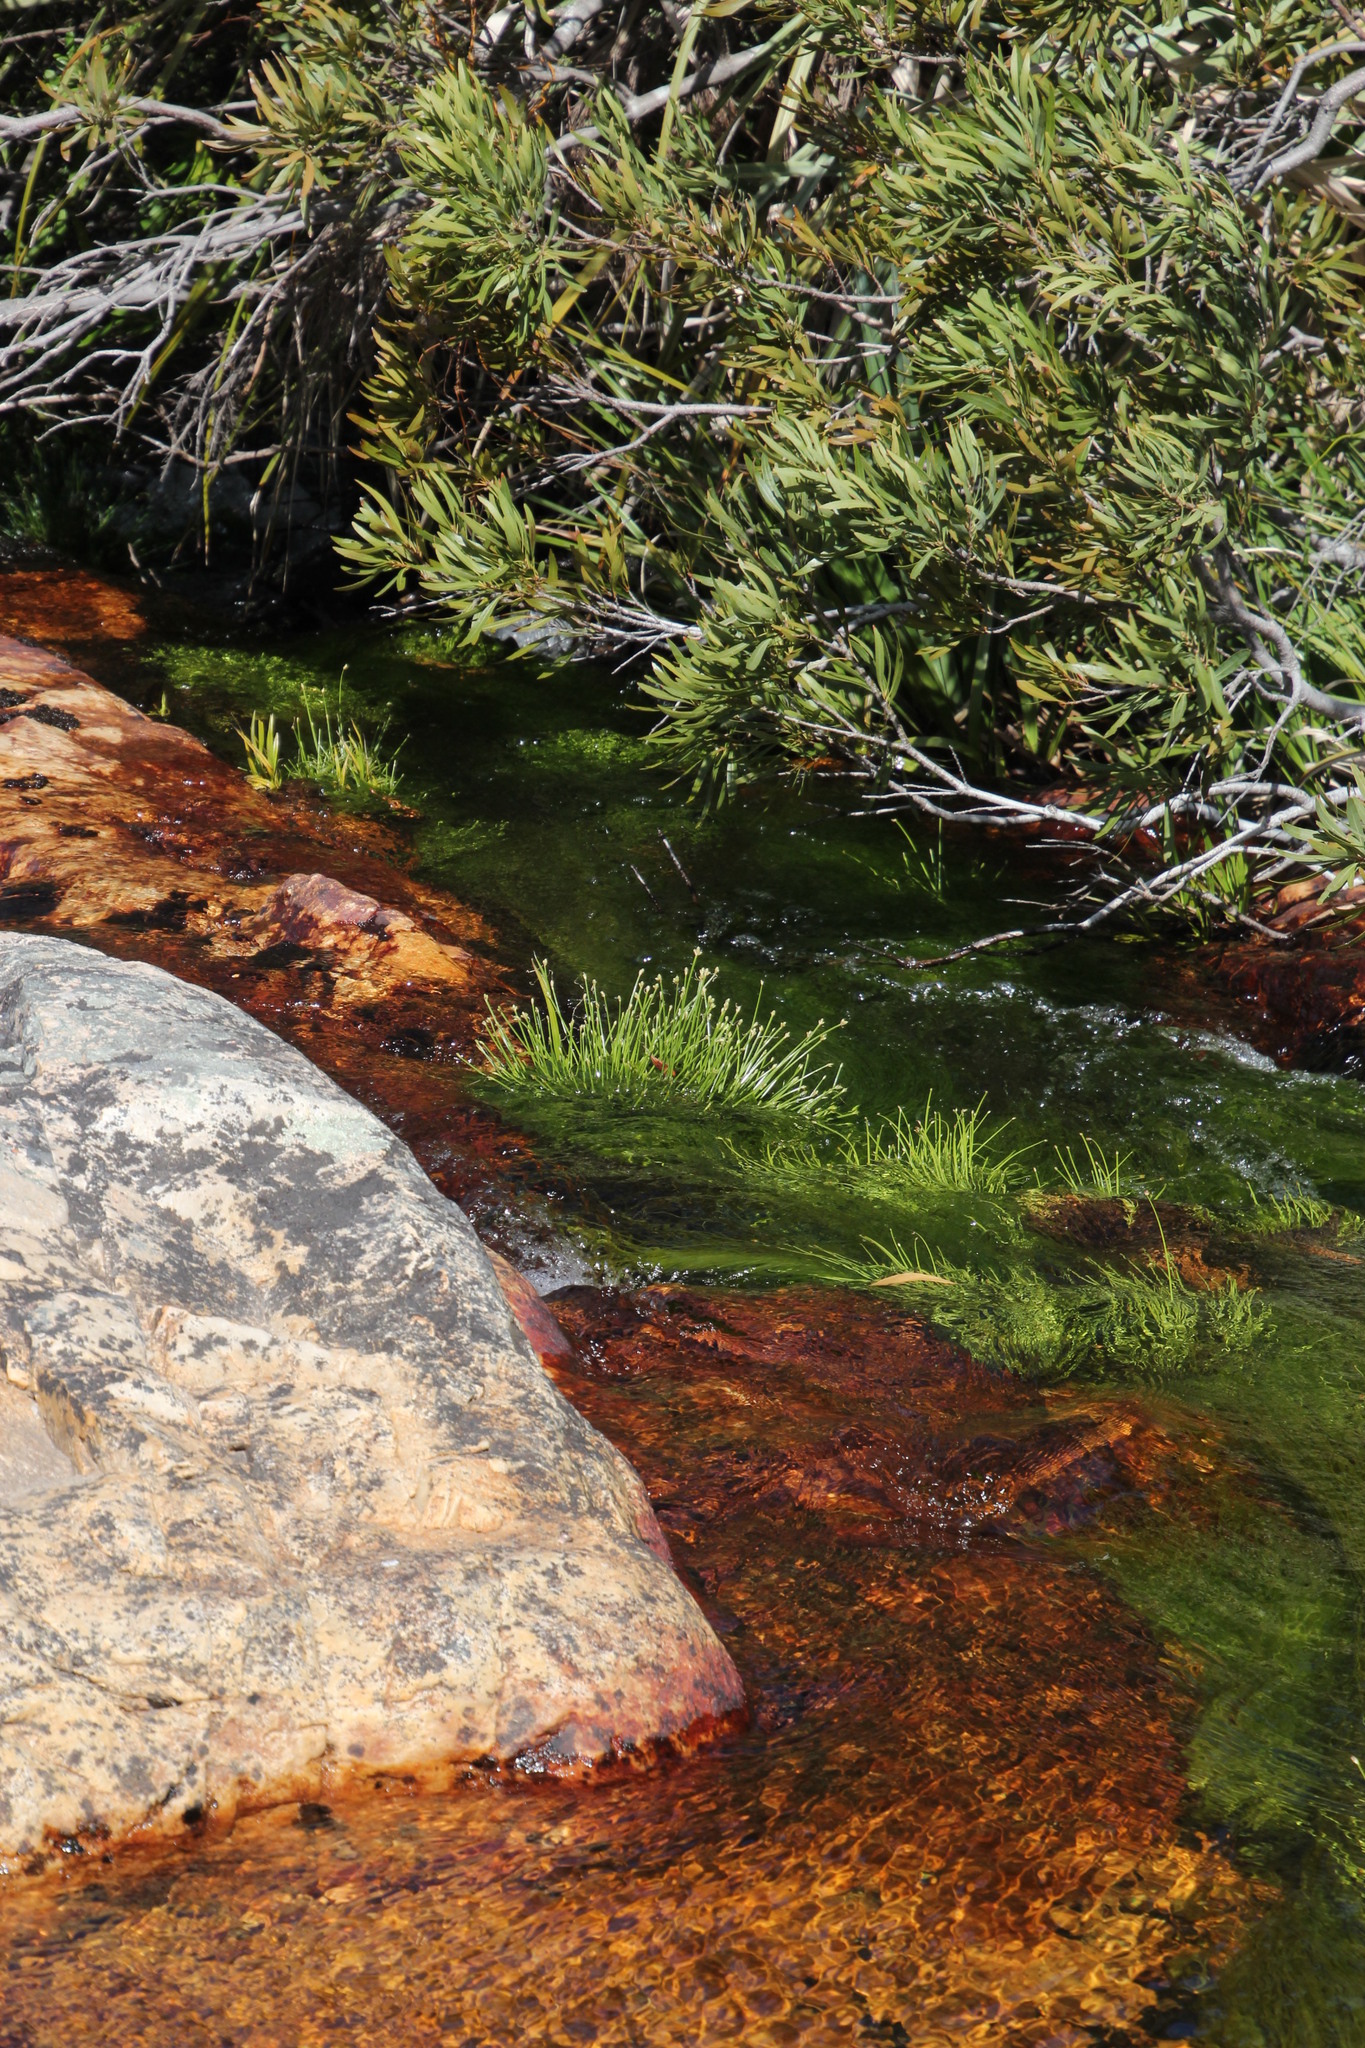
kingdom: Plantae
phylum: Tracheophyta
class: Liliopsida
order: Poales
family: Cyperaceae
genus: Isolepis
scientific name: Isolepis digitata
